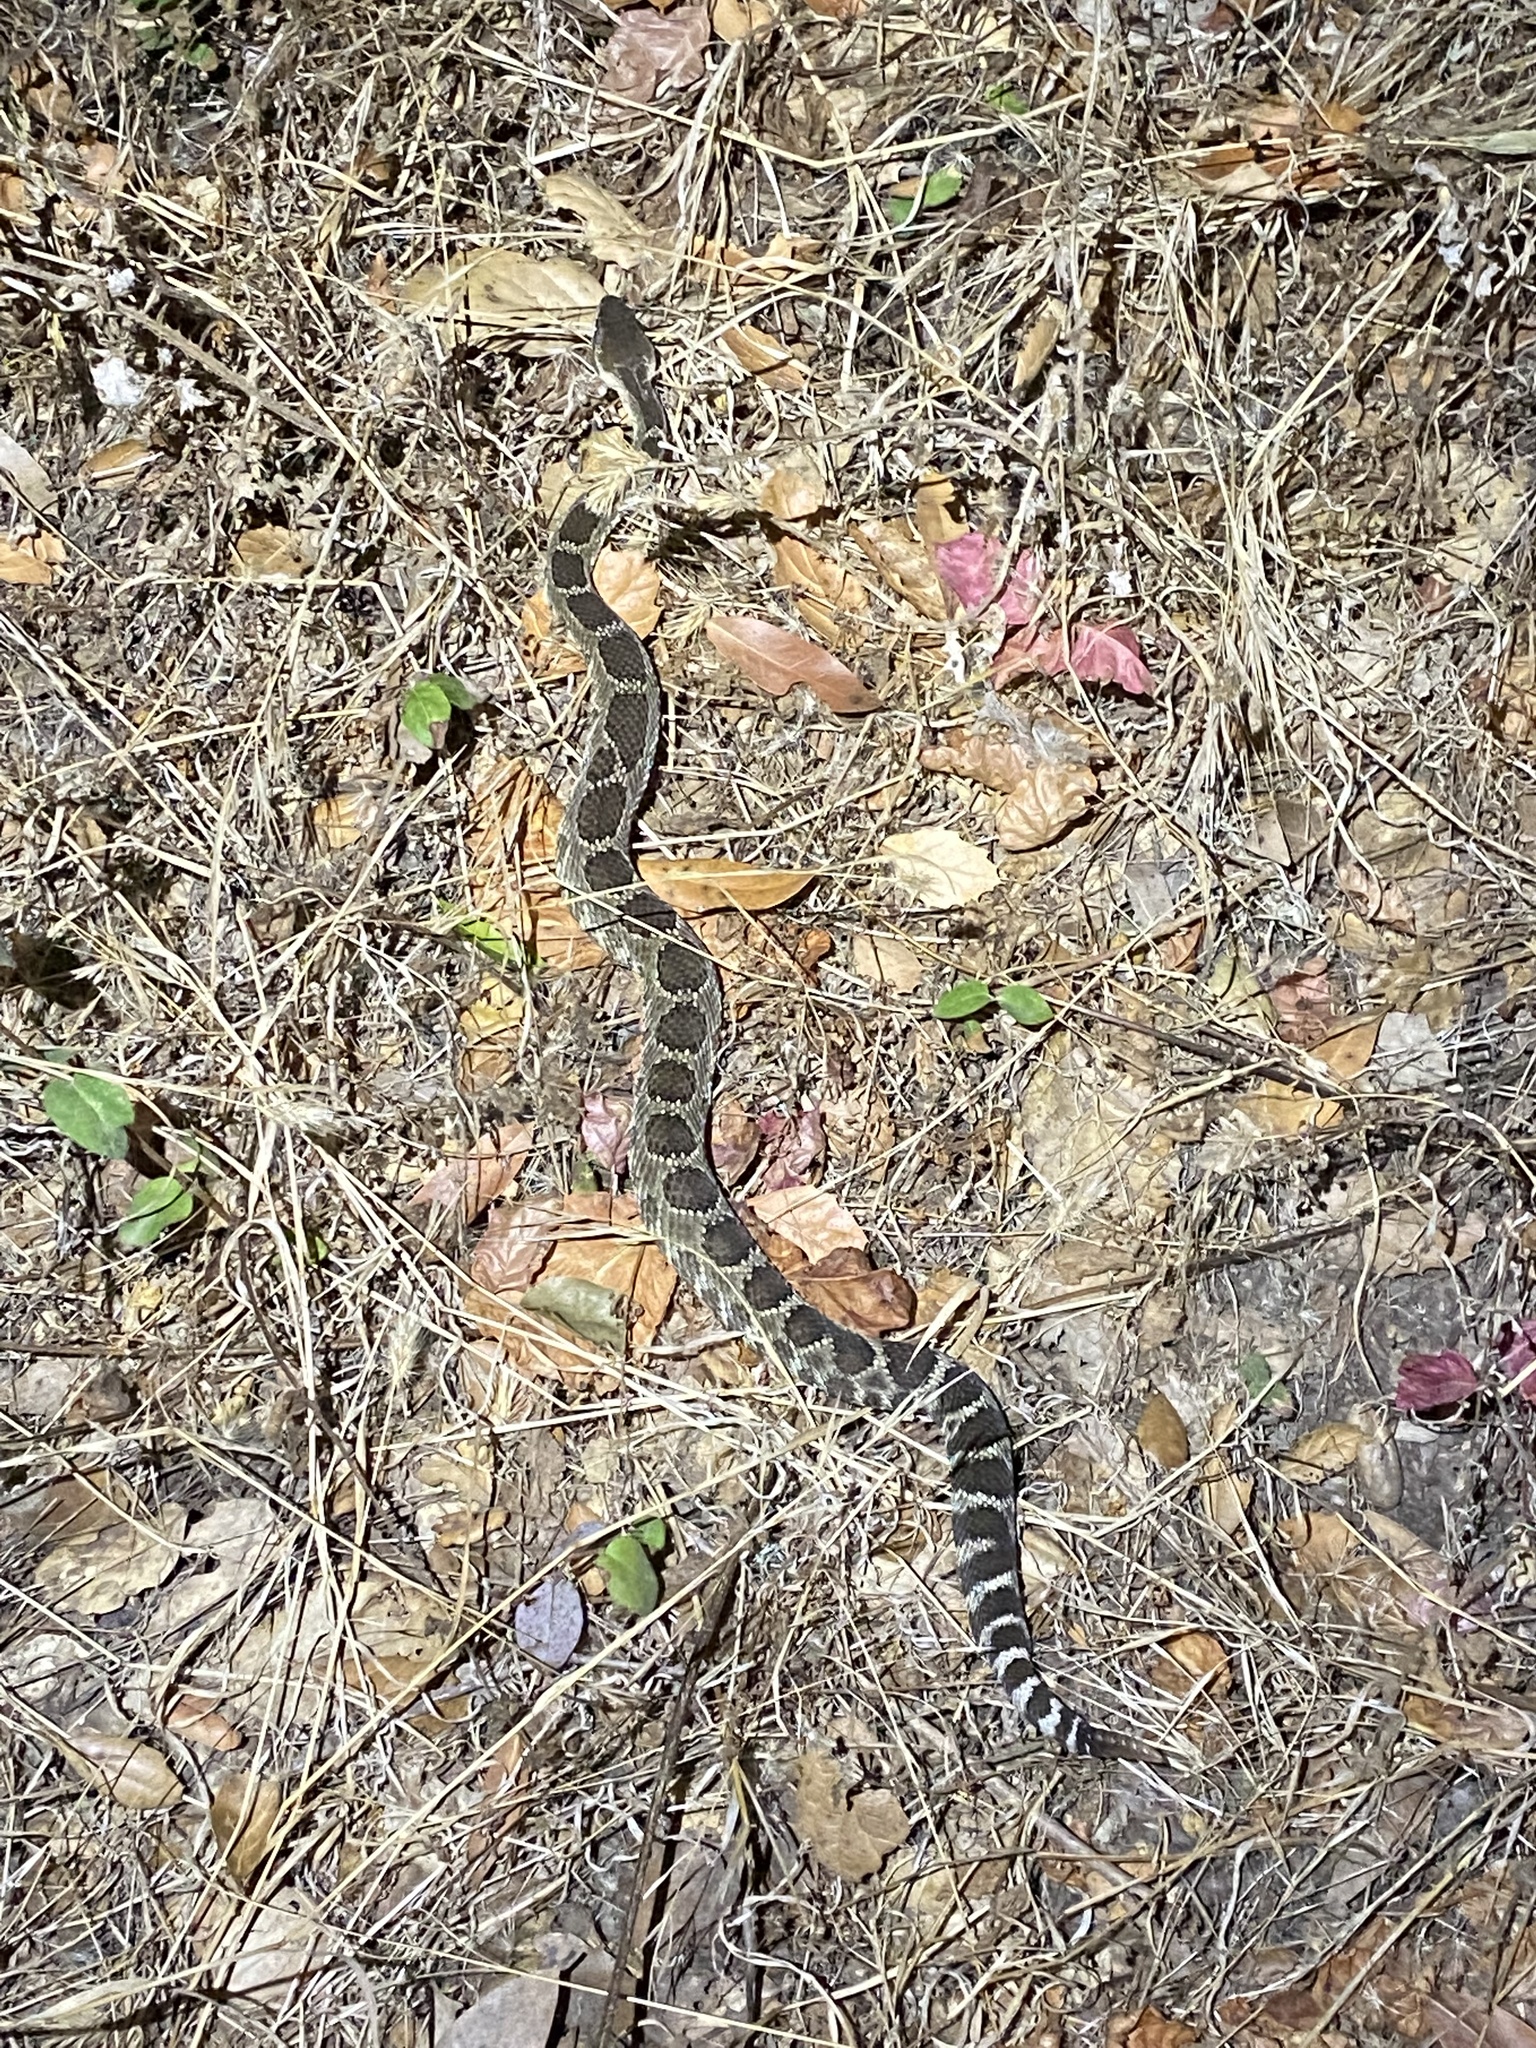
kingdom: Animalia
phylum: Chordata
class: Squamata
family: Viperidae
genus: Crotalus
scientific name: Crotalus oreganus
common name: Abyssus
